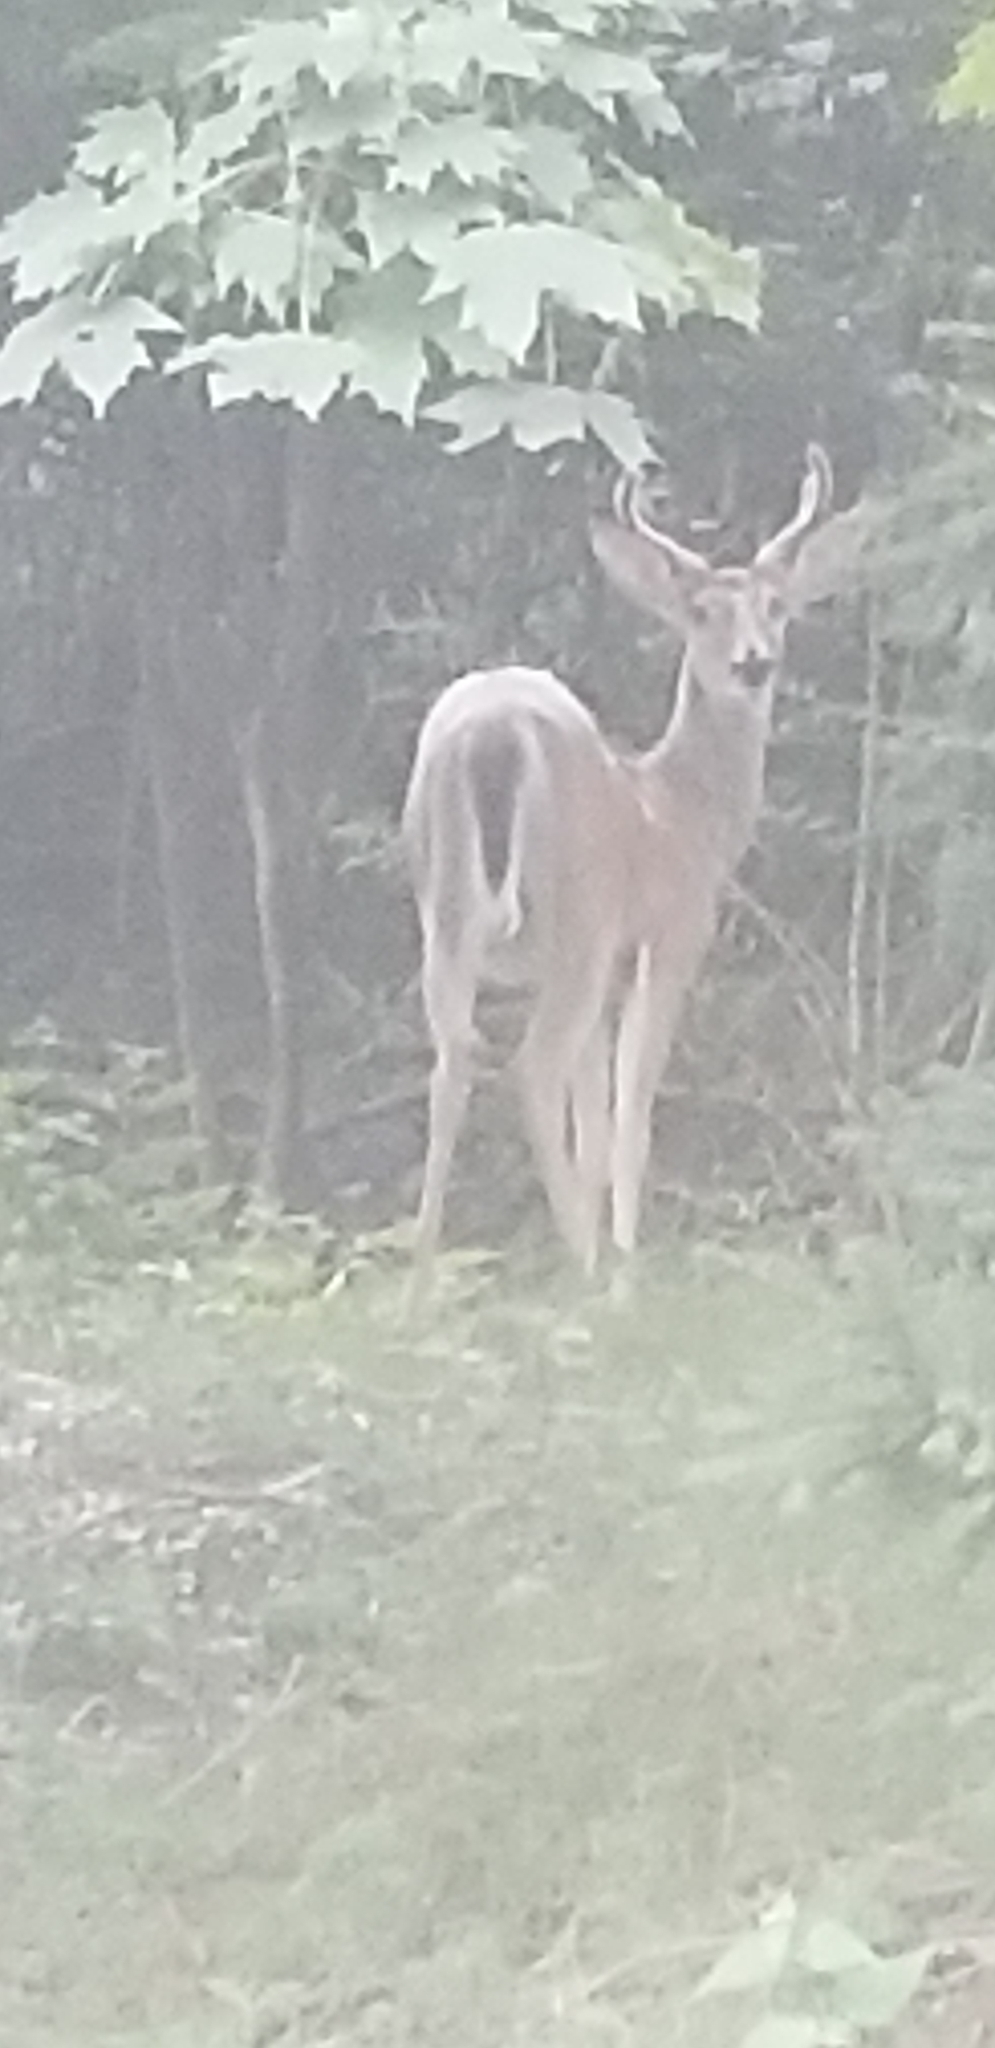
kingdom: Animalia
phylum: Chordata
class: Mammalia
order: Artiodactyla
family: Cervidae
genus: Odocoileus
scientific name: Odocoileus virginianus
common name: White-tailed deer
